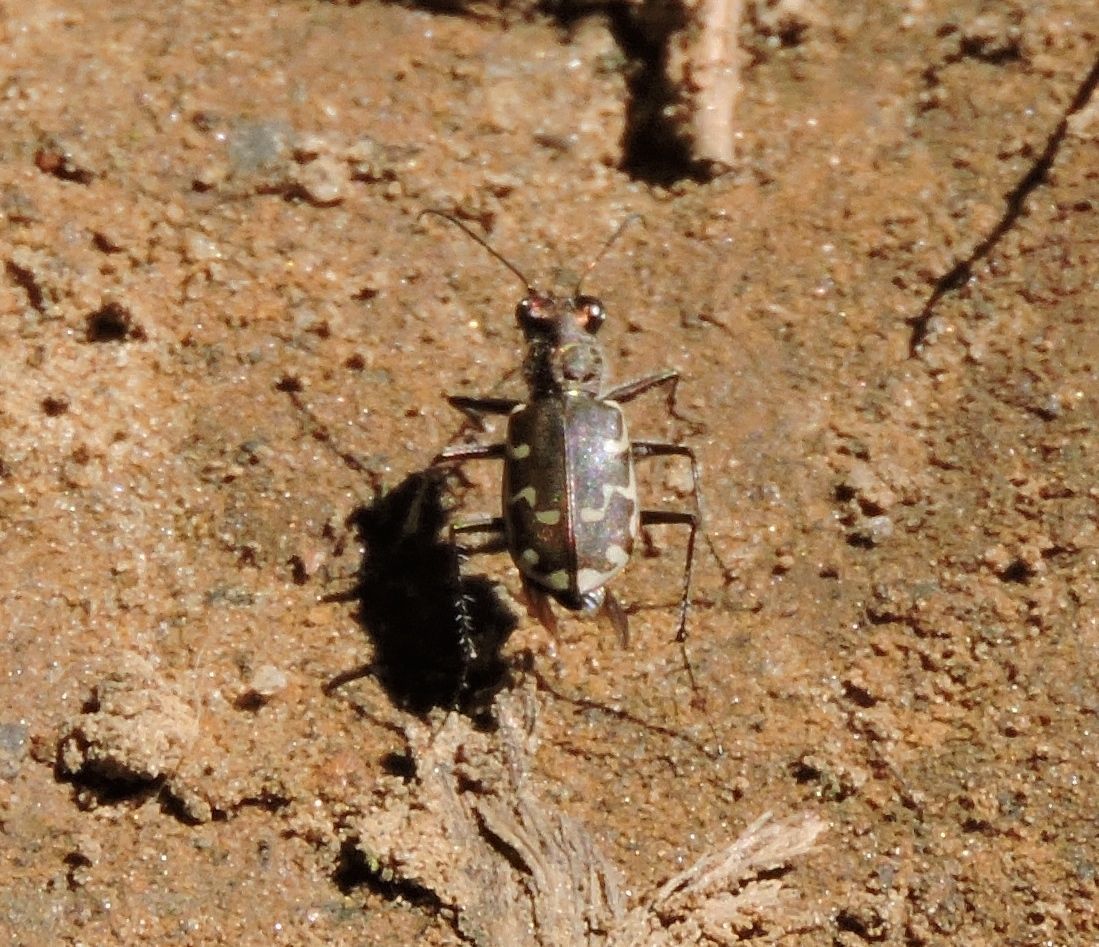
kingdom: Animalia
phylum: Arthropoda
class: Insecta
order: Coleoptera
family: Carabidae
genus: Cicindela
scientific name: Cicindela repanda
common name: Bronzed tiger beetle
